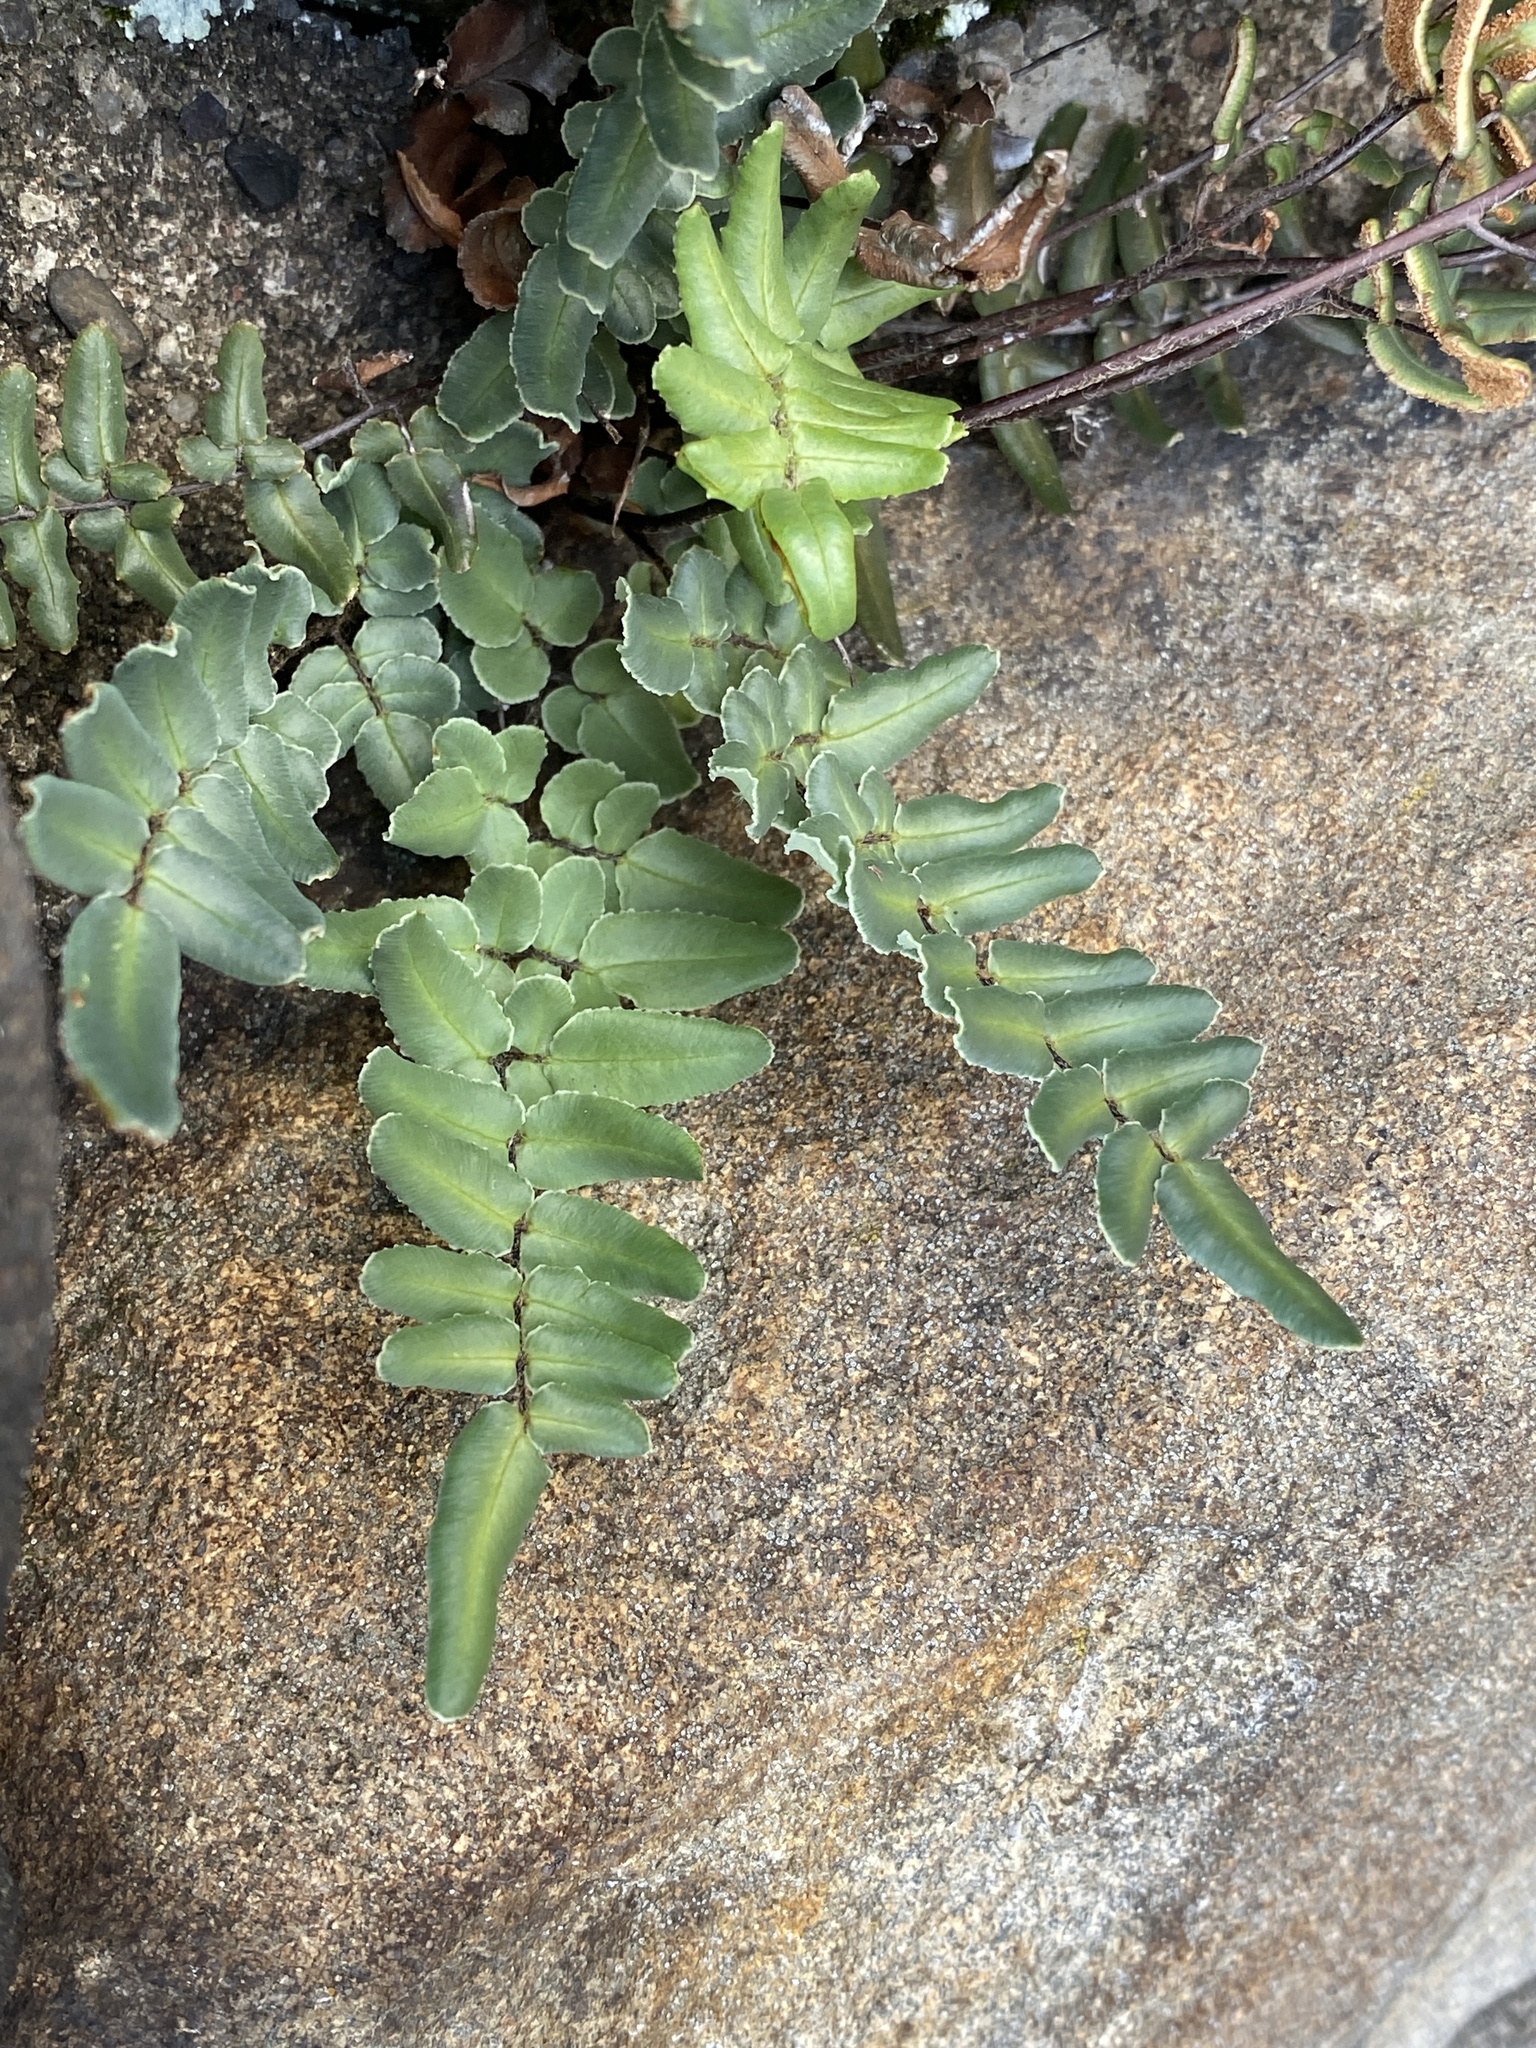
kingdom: Plantae
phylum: Tracheophyta
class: Polypodiopsida
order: Polypodiales
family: Pteridaceae
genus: Pellaea
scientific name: Pellaea atropurpurea
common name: Hairy cliffbrake
